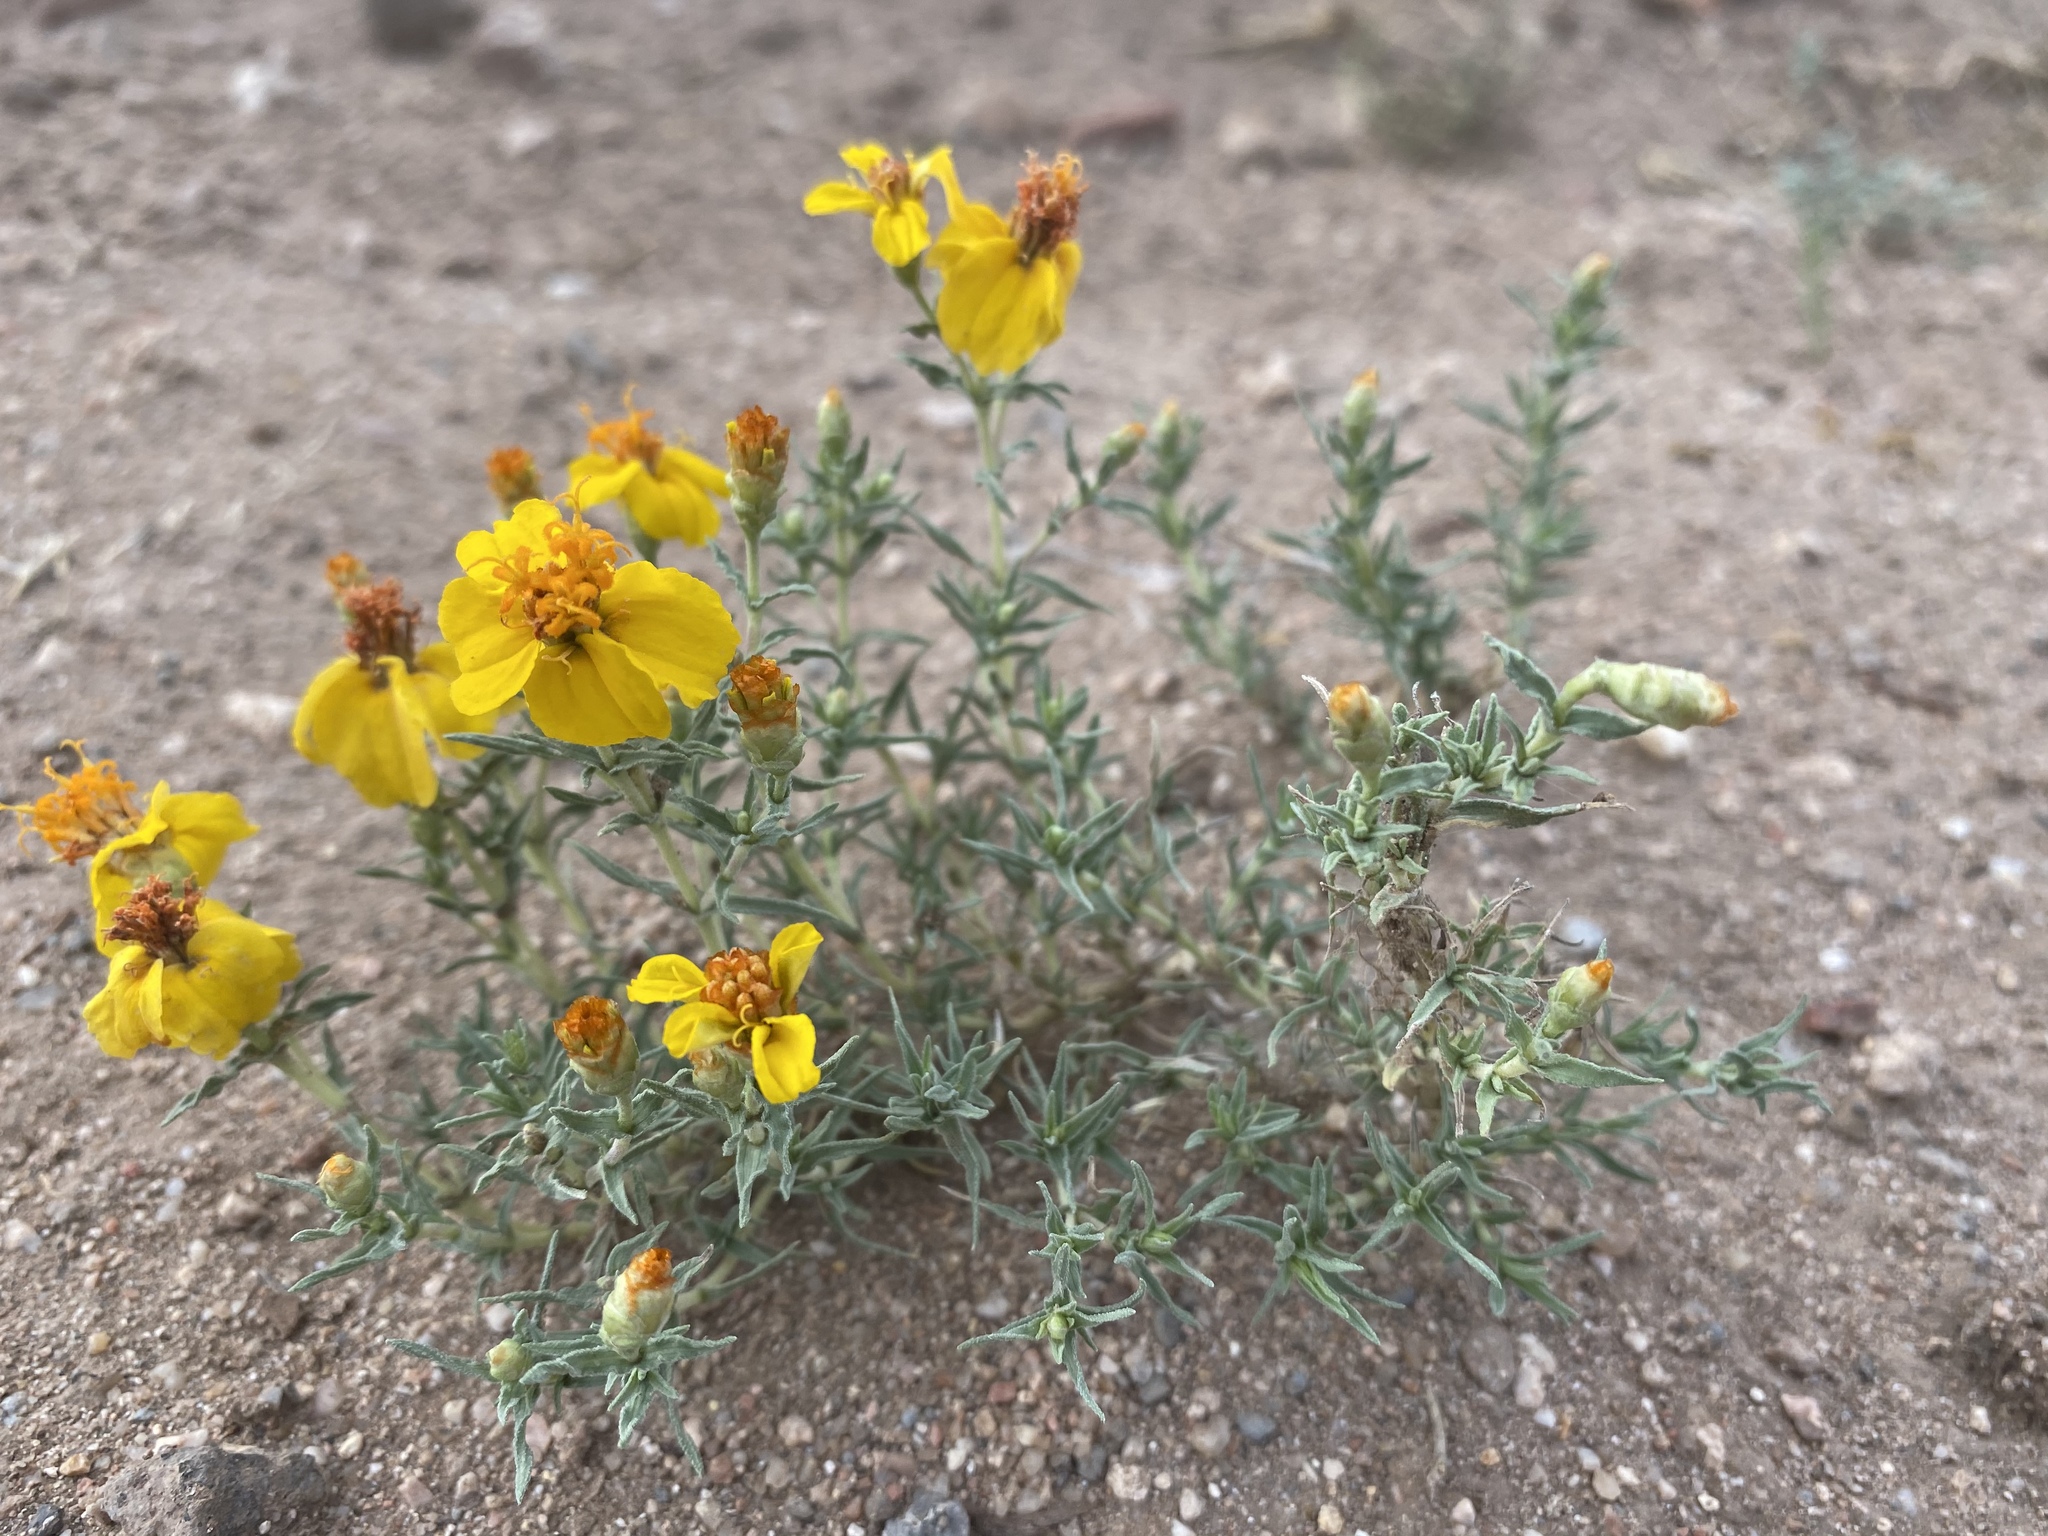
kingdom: Plantae
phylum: Tracheophyta
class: Magnoliopsida
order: Asterales
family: Asteraceae
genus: Zinnia
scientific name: Zinnia grandiflora
